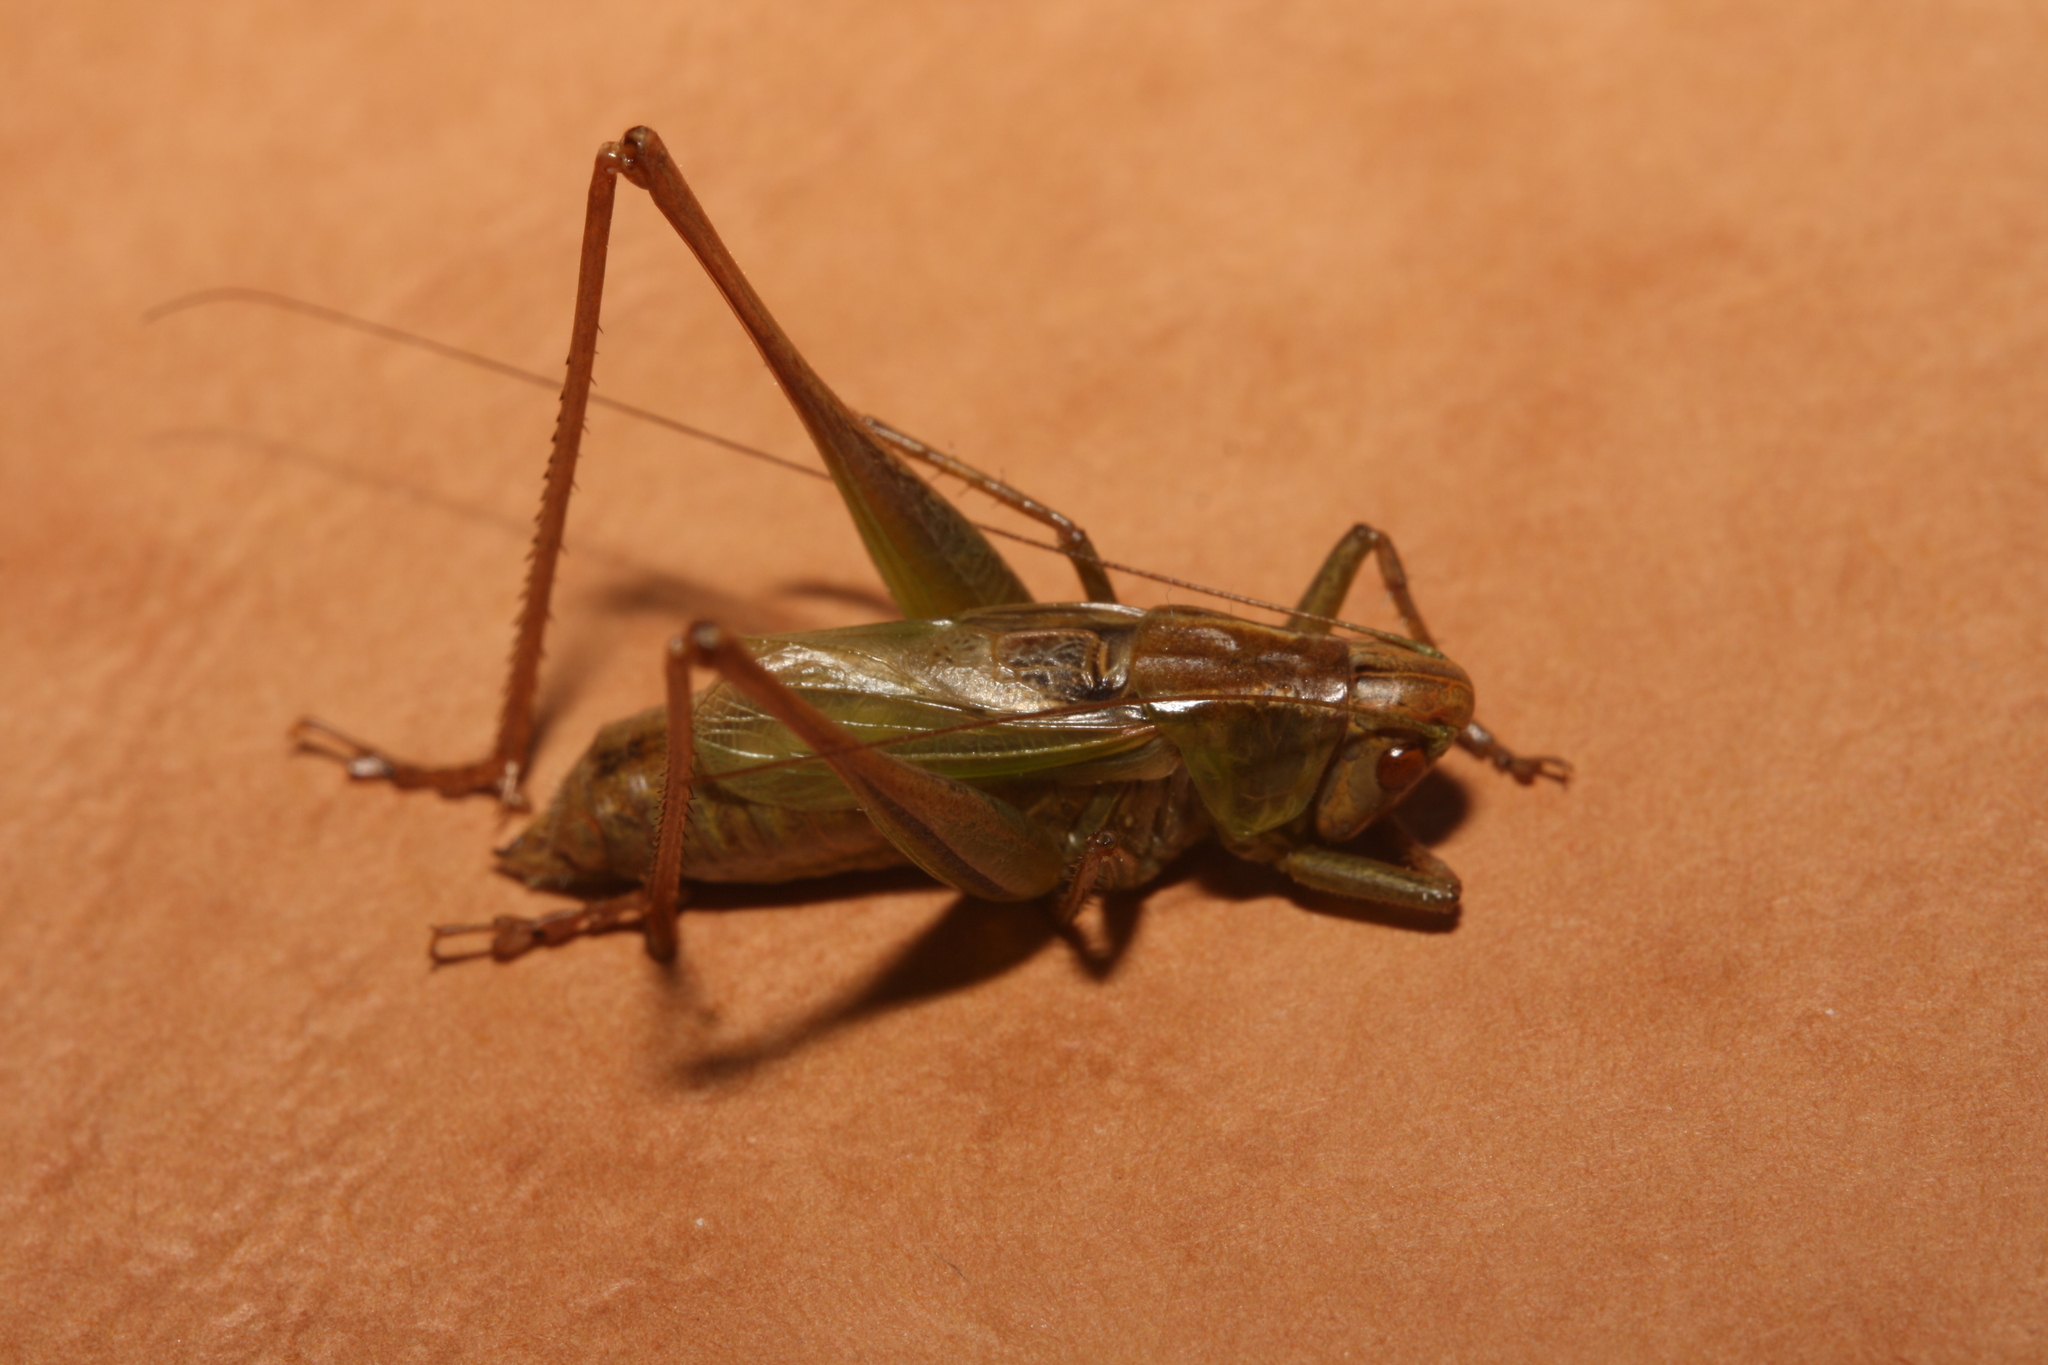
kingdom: Animalia
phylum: Arthropoda
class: Insecta
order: Orthoptera
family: Tettigoniidae
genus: Bicolorana
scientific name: Bicolorana bicolor
